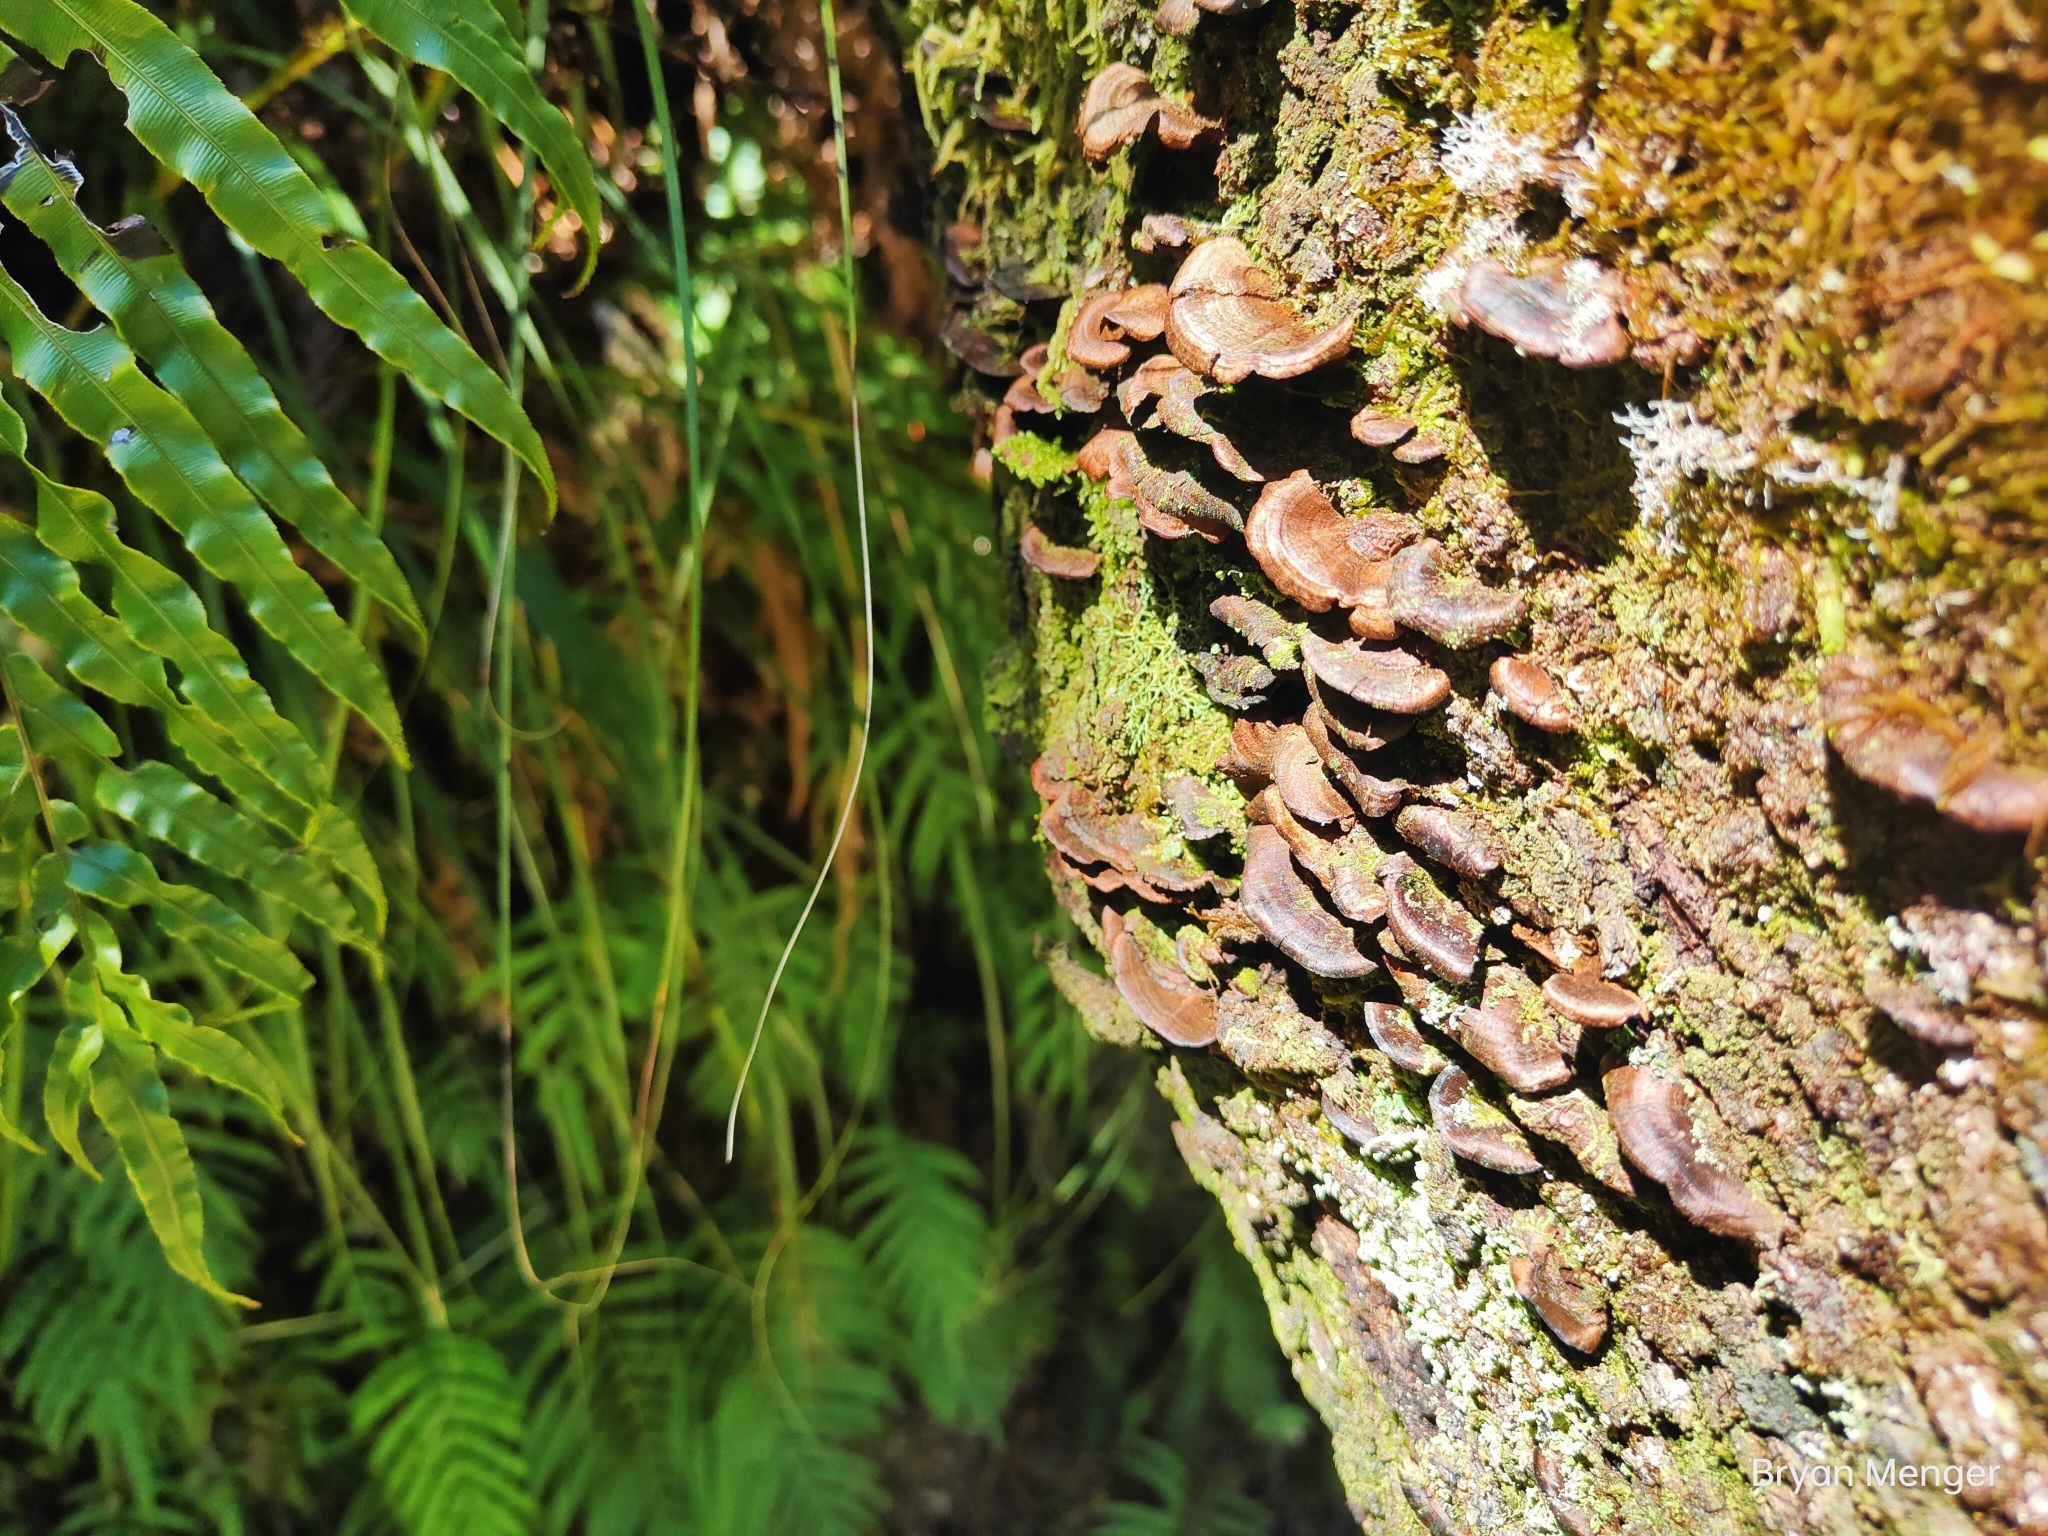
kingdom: Fungi
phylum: Basidiomycota
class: Agaricomycetes
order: Hymenochaetales
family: Hymenochaetaceae
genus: Hymenochaete
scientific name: Hymenochaete microcycla
